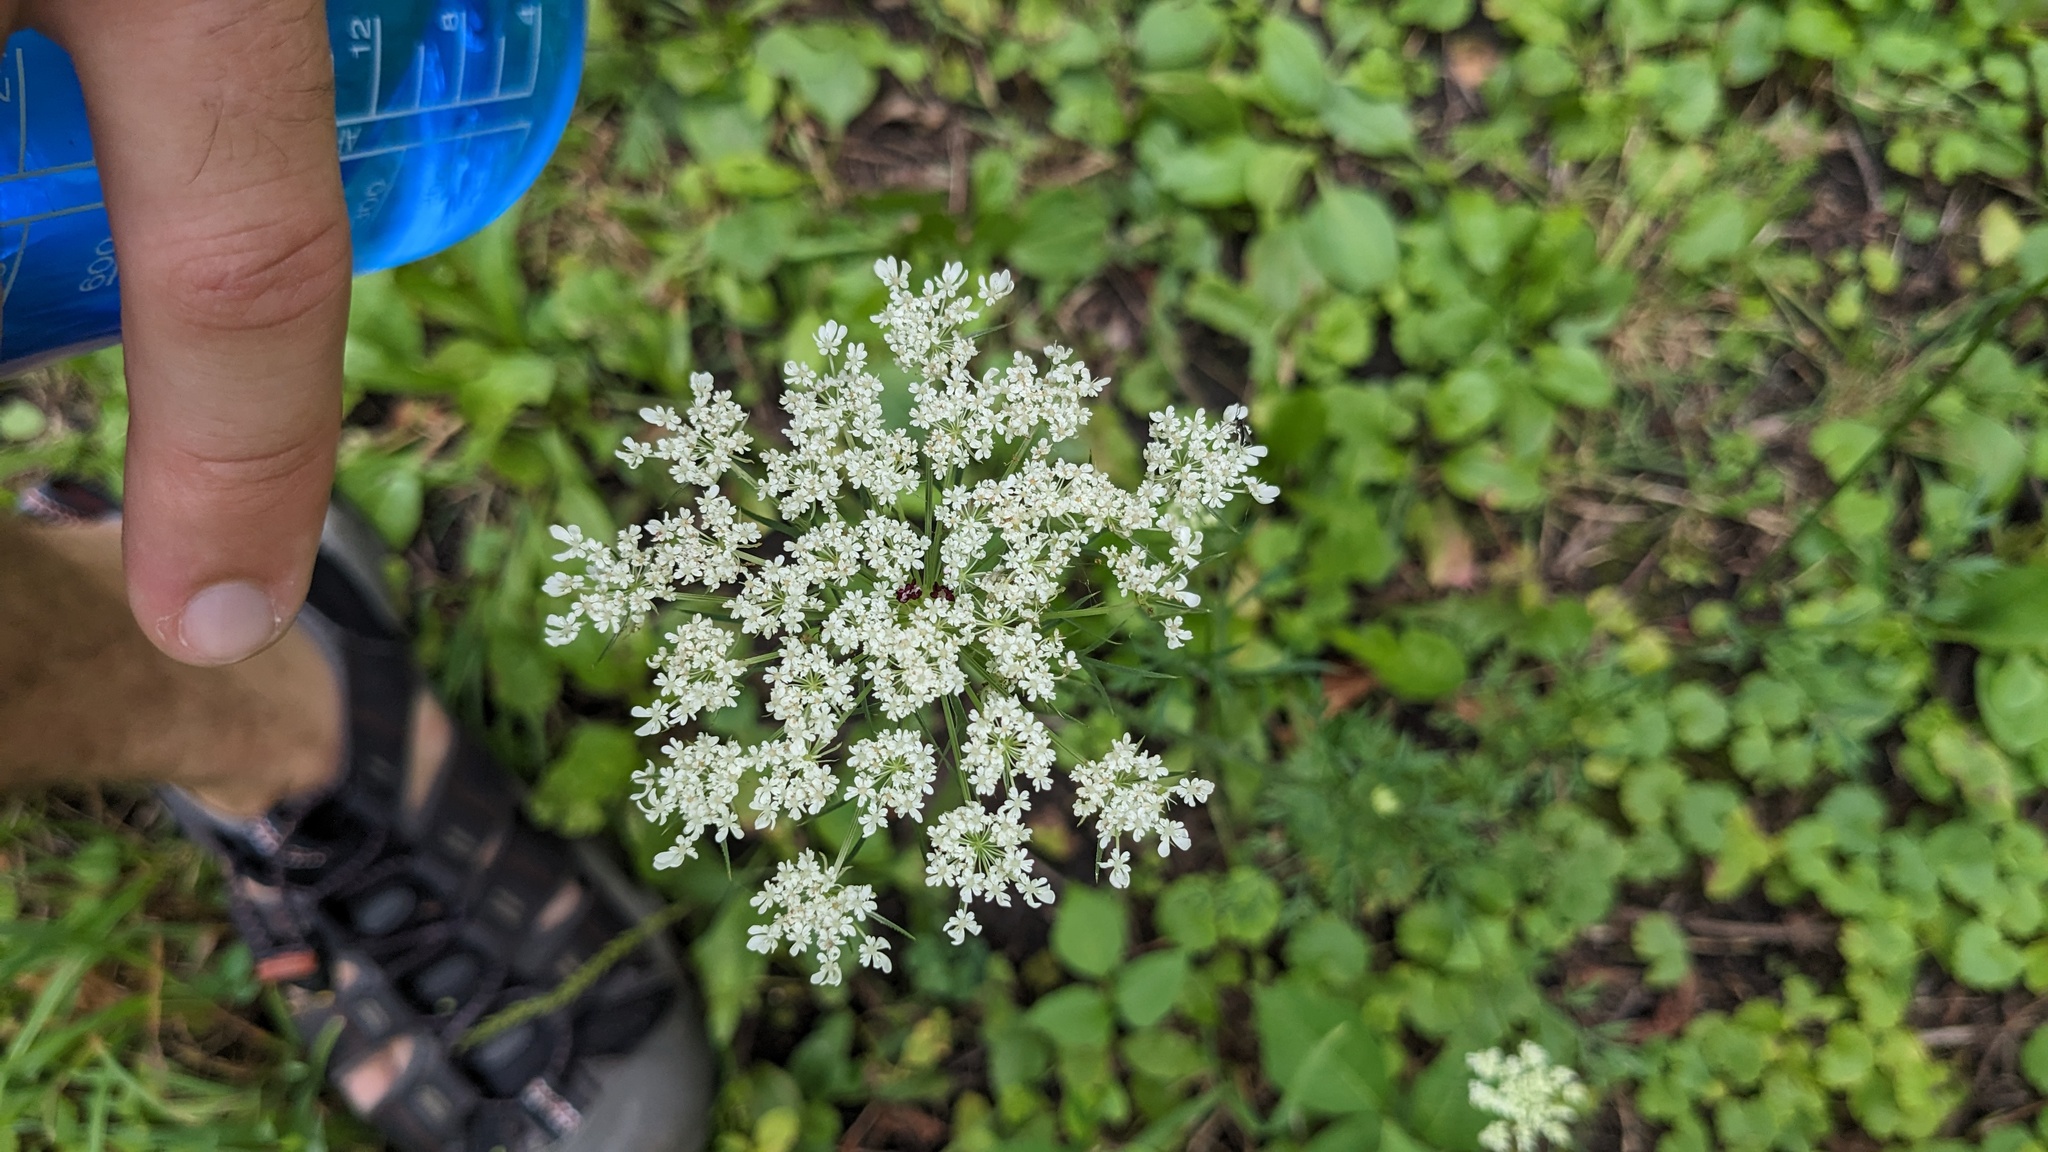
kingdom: Plantae
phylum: Tracheophyta
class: Magnoliopsida
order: Apiales
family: Apiaceae
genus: Daucus
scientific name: Daucus carota
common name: Wild carrot
